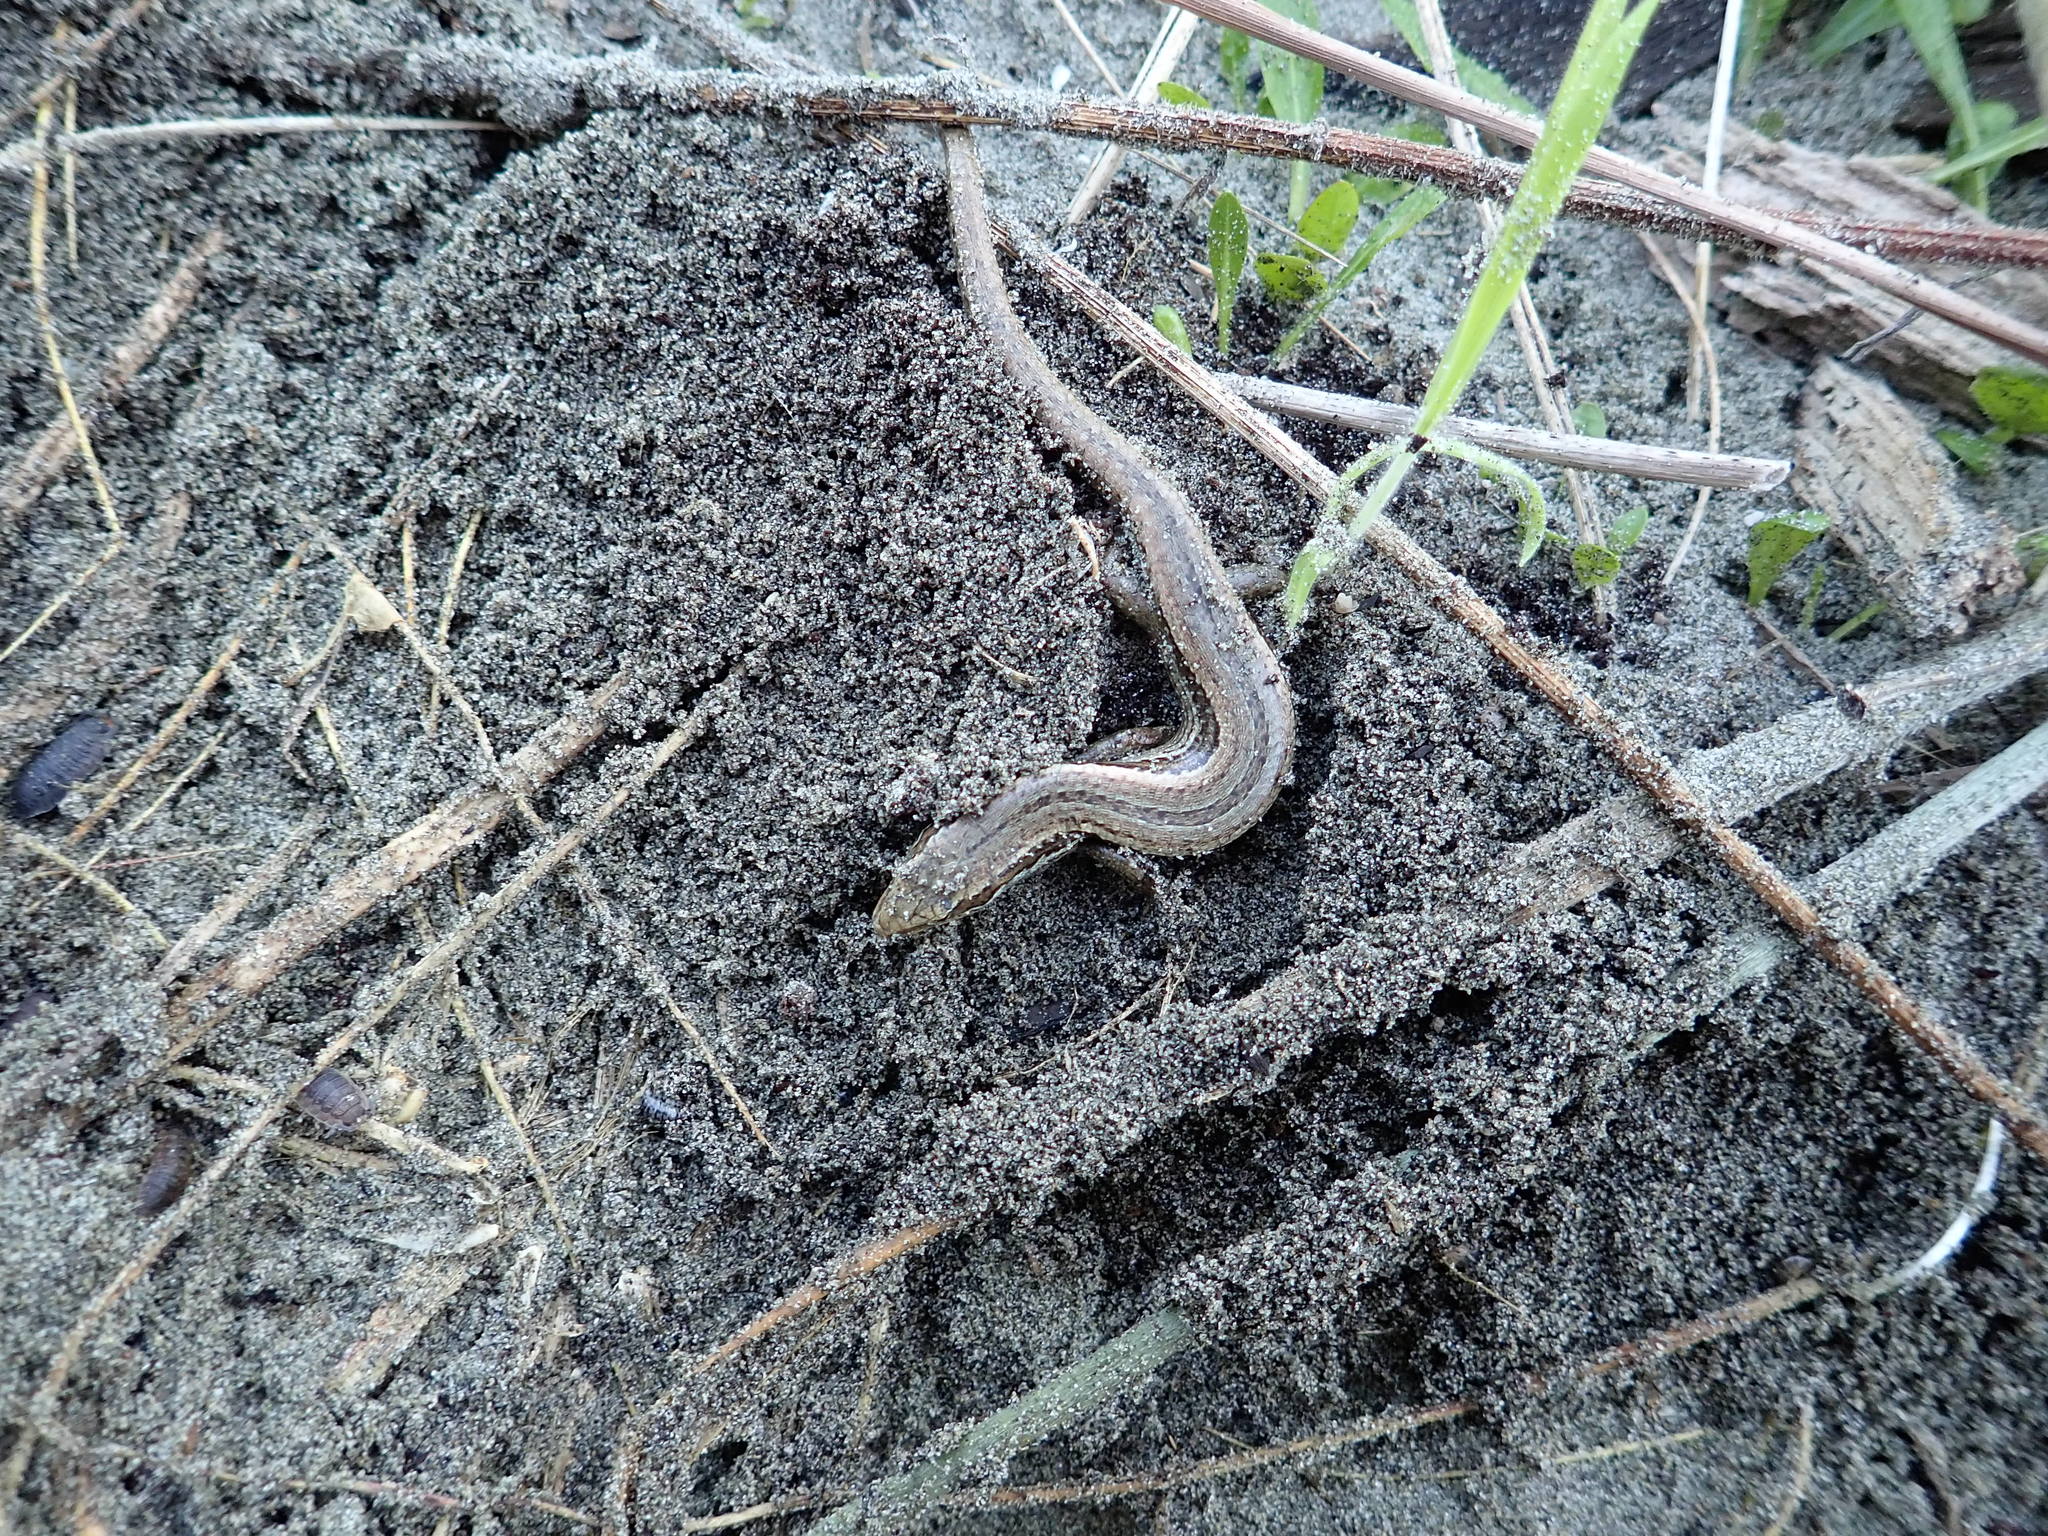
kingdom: Animalia
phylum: Chordata
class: Squamata
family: Scincidae
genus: Oligosoma
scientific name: Oligosoma polychroma
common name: Common new zealand skink
